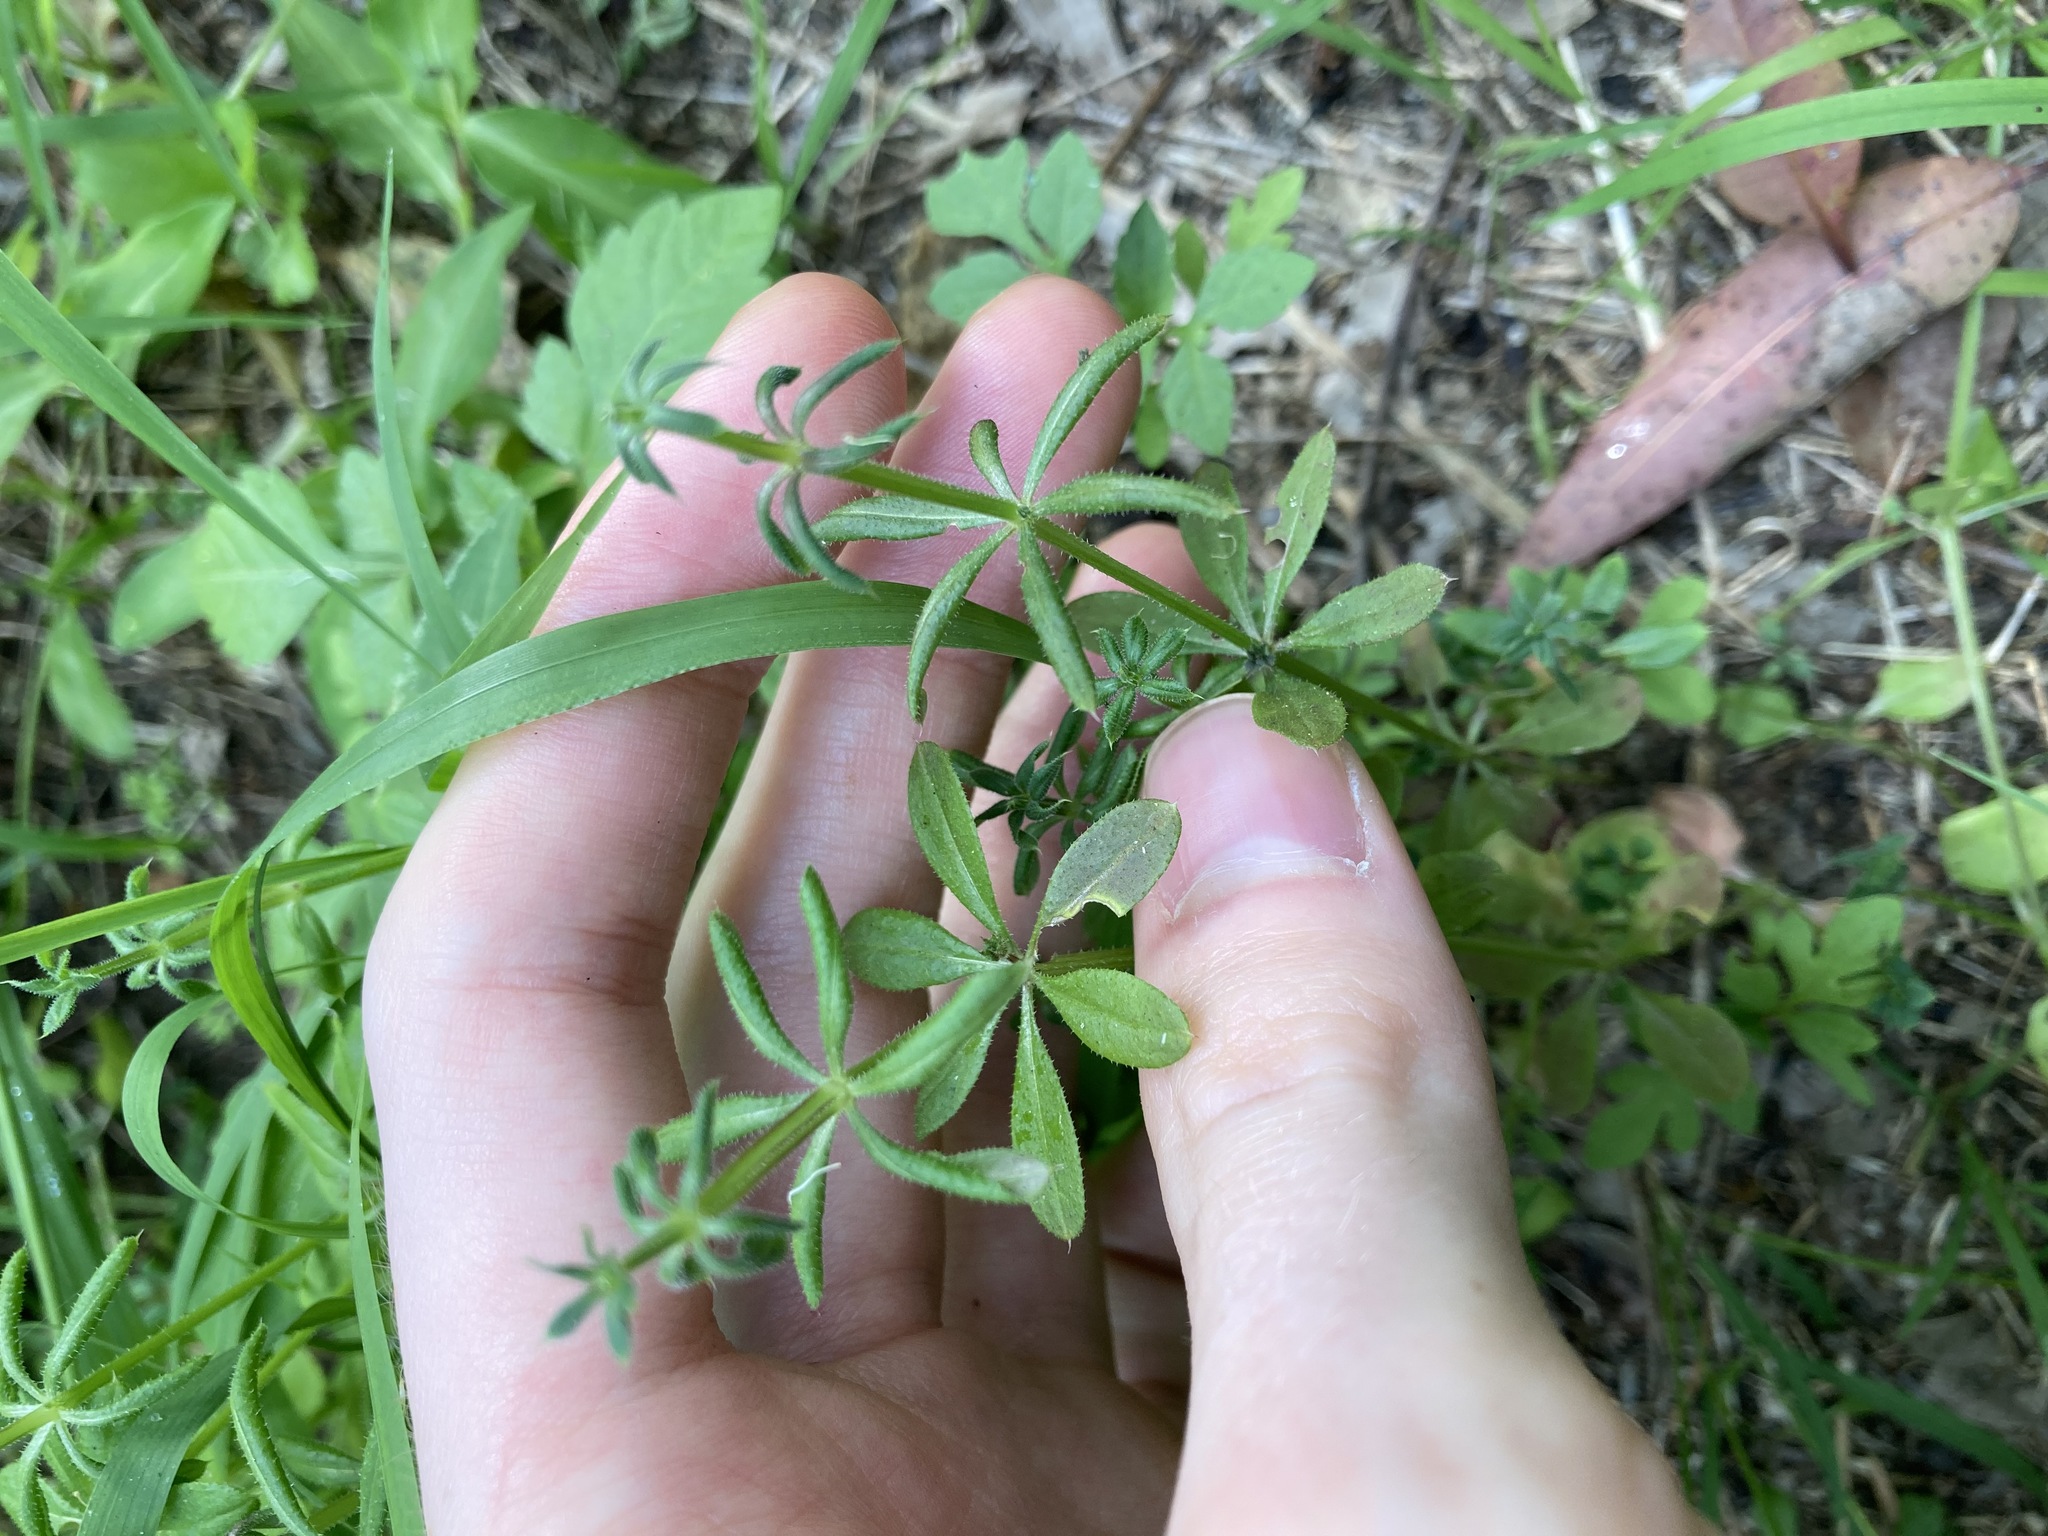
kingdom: Plantae
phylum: Tracheophyta
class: Magnoliopsida
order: Gentianales
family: Rubiaceae
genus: Galium
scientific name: Galium aparine
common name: Cleavers
